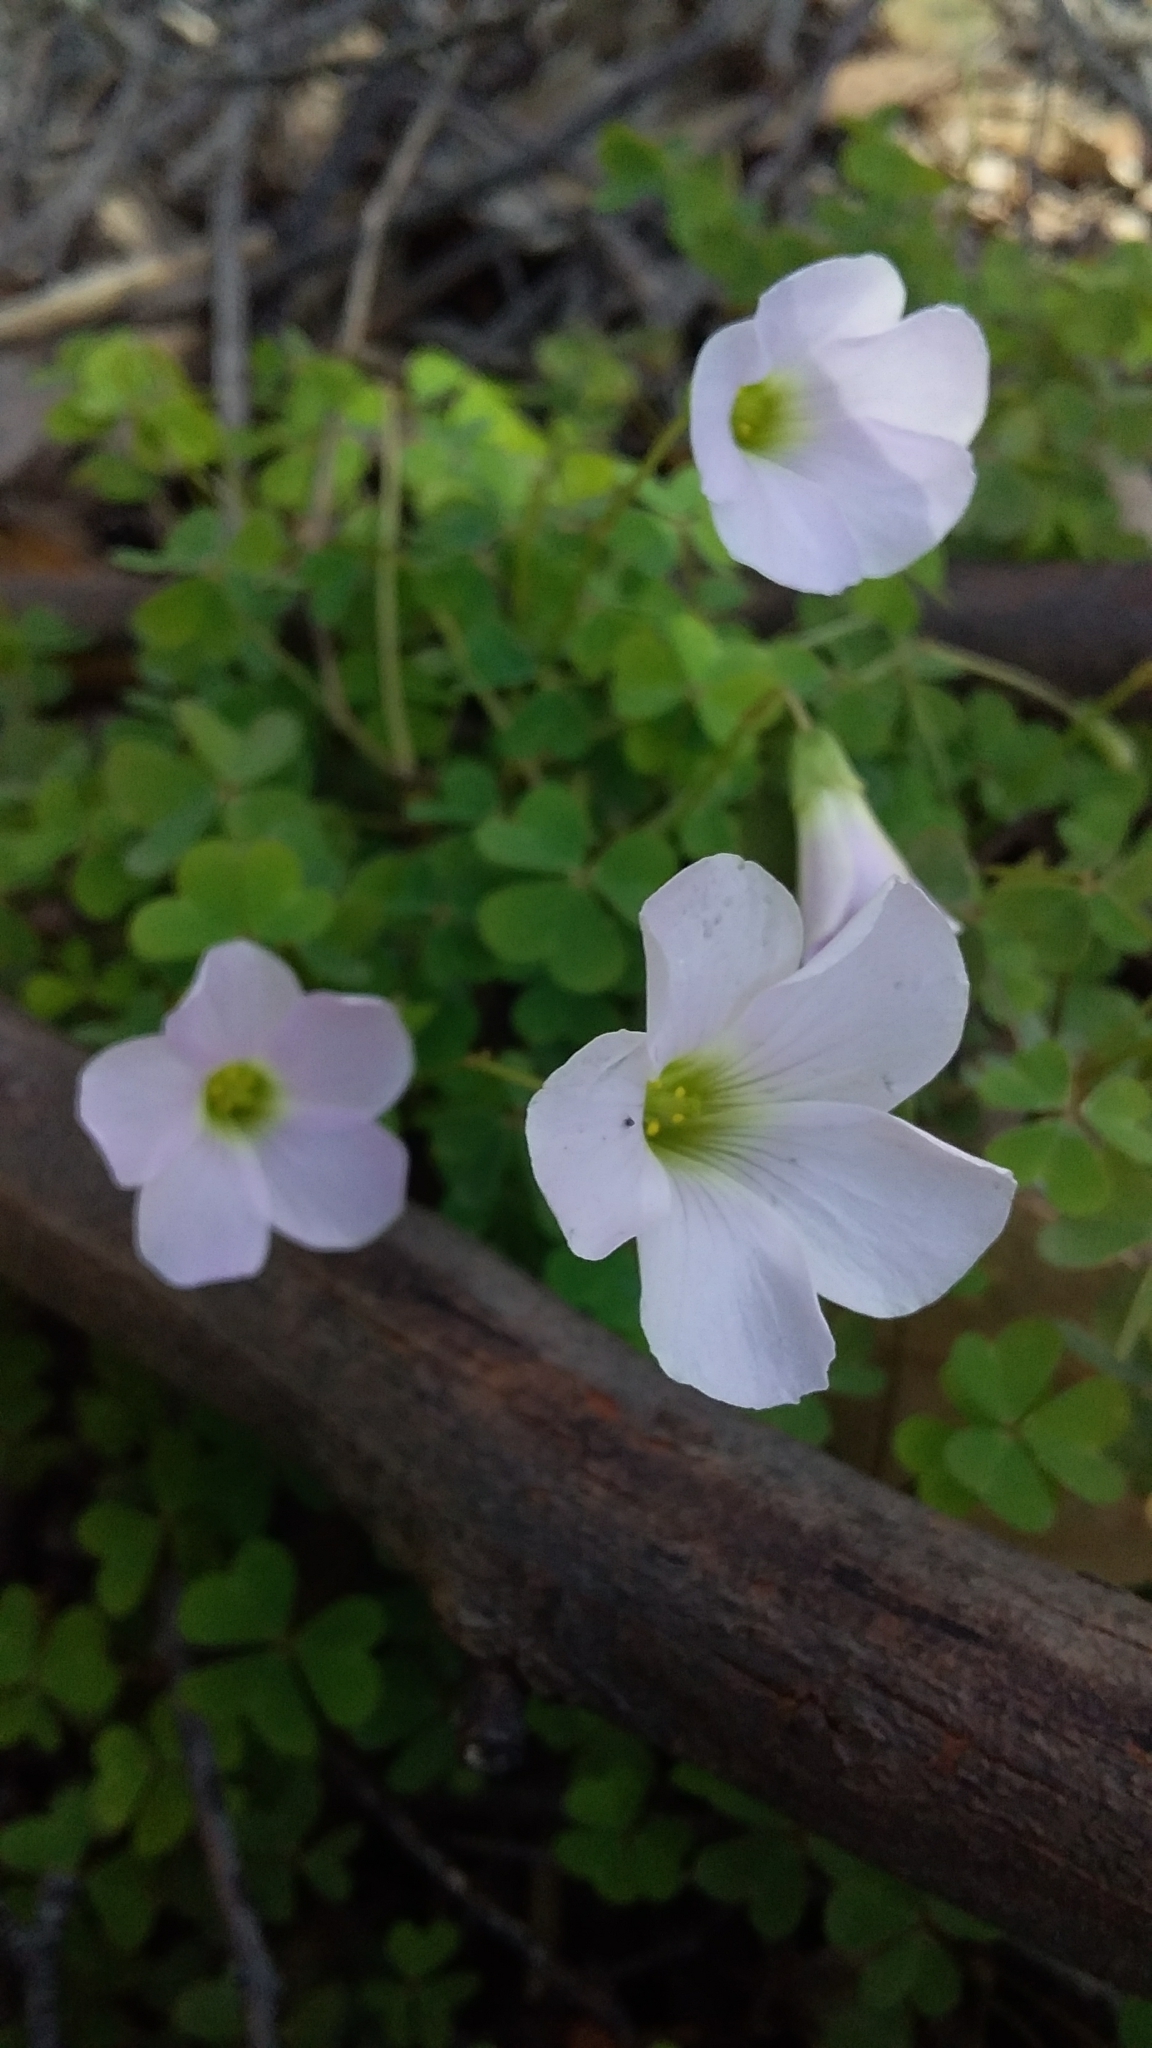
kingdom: Plantae
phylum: Tracheophyta
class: Magnoliopsida
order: Oxalidales
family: Oxalidaceae
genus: Oxalis
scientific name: Oxalis incarnata
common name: Pale pink-sorrel
